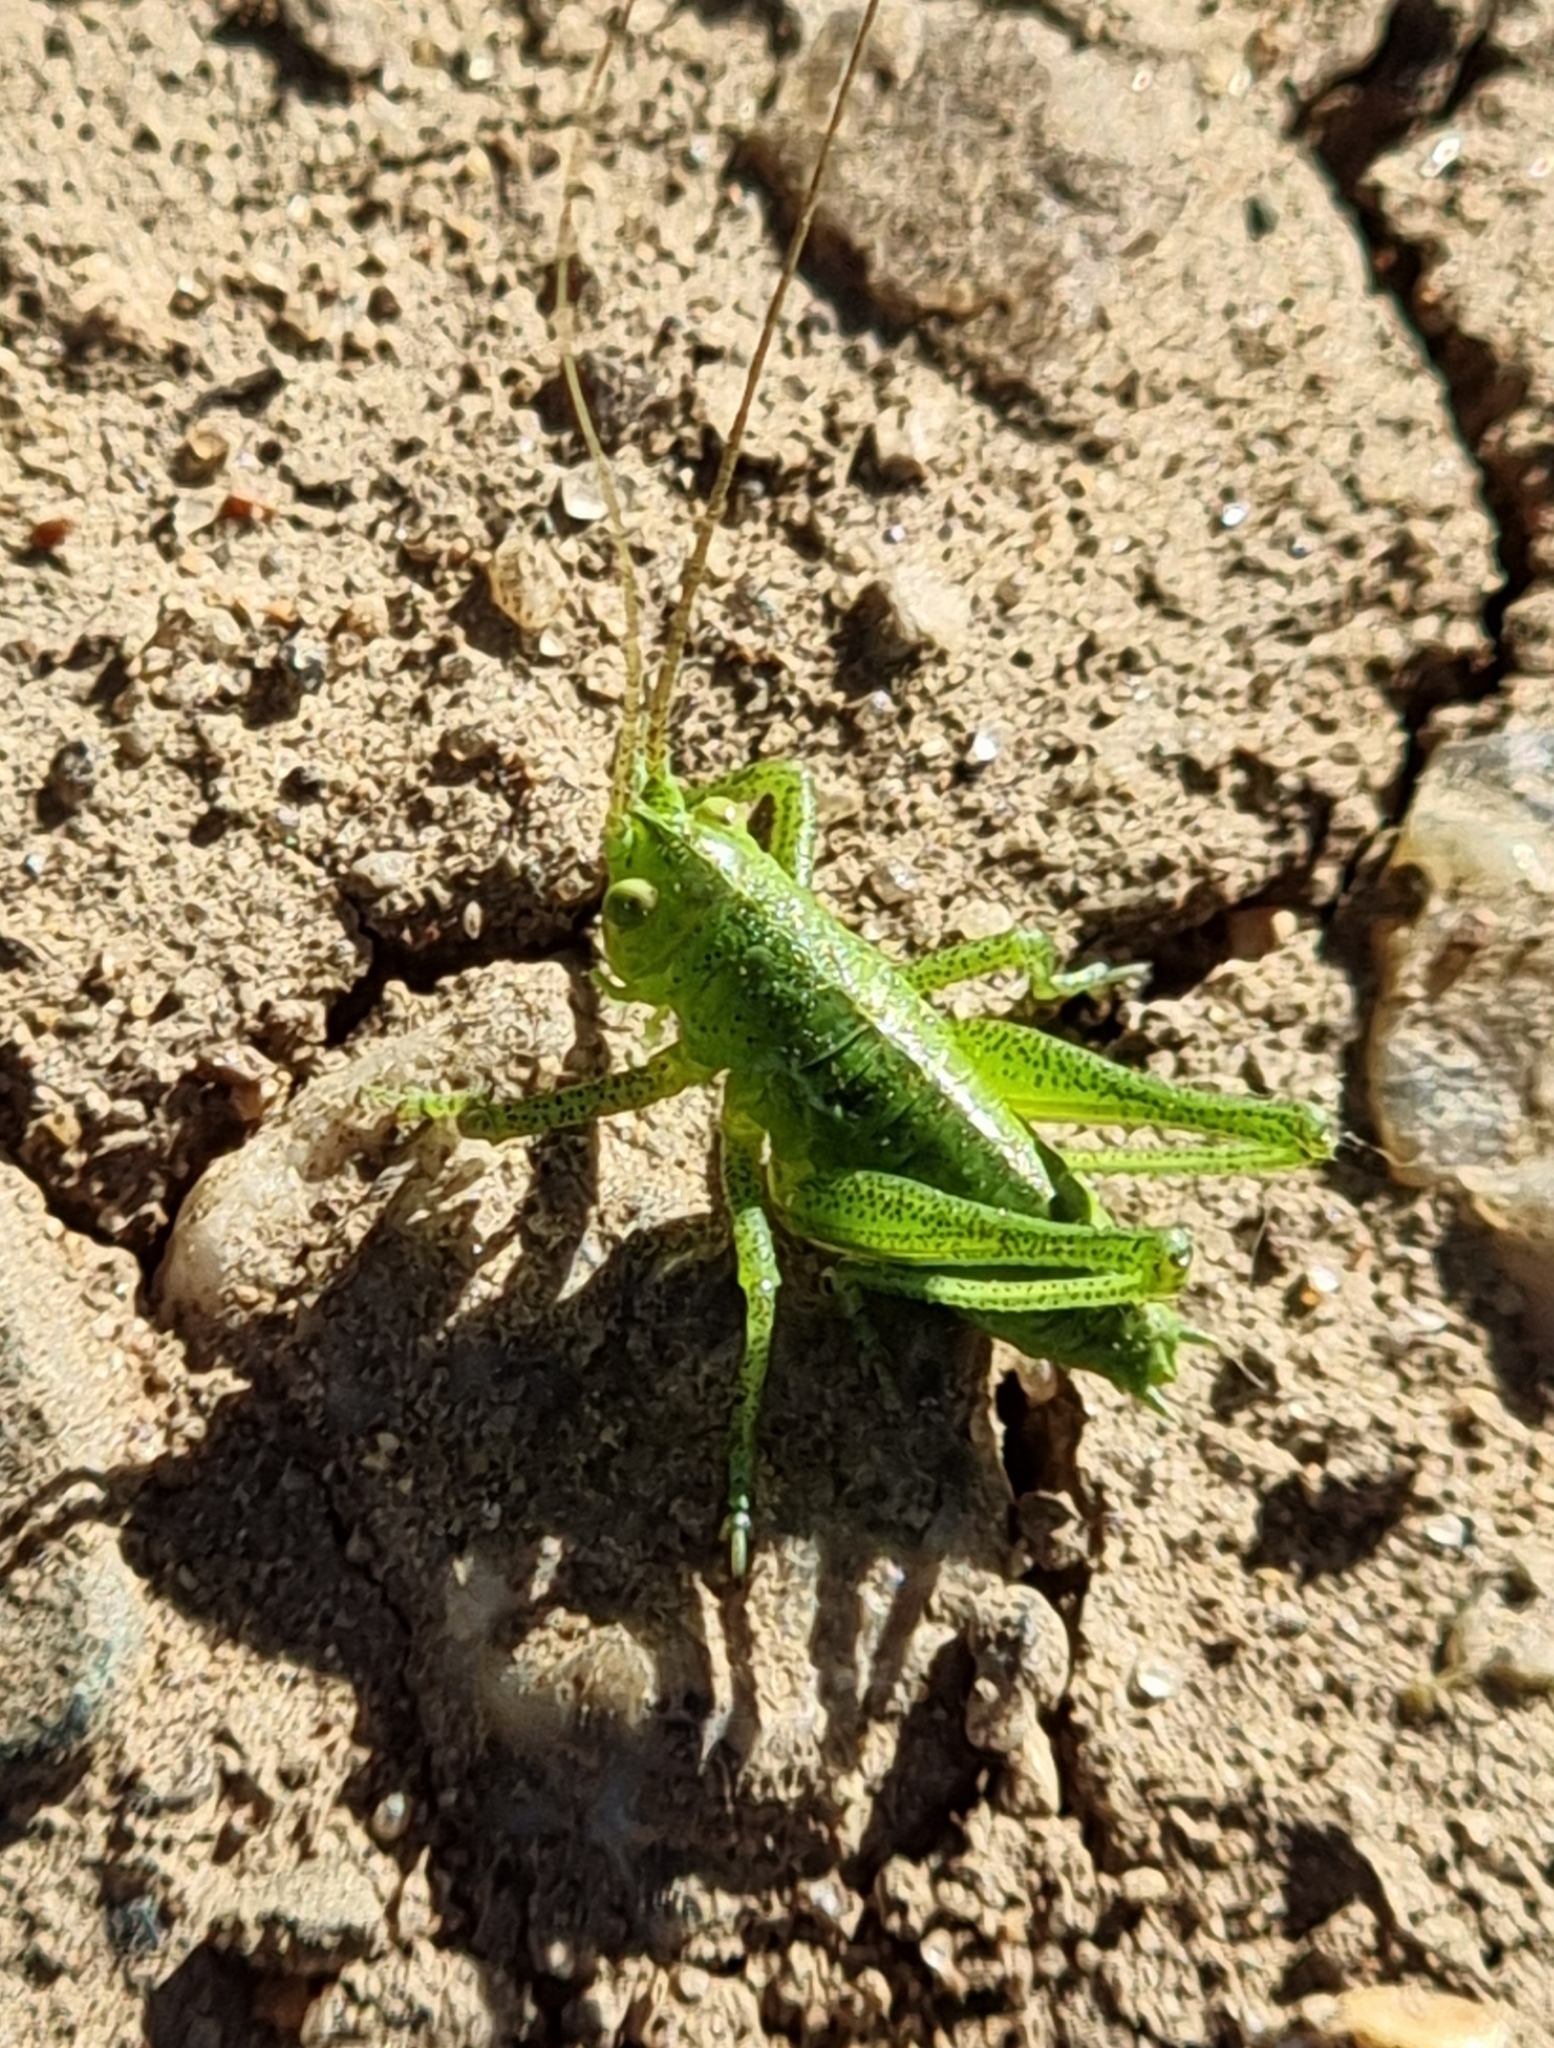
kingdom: Animalia
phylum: Arthropoda
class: Insecta
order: Orthoptera
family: Tettigoniidae
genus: Tettigonia
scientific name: Tettigonia cantans
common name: Upland green bush-cricket
